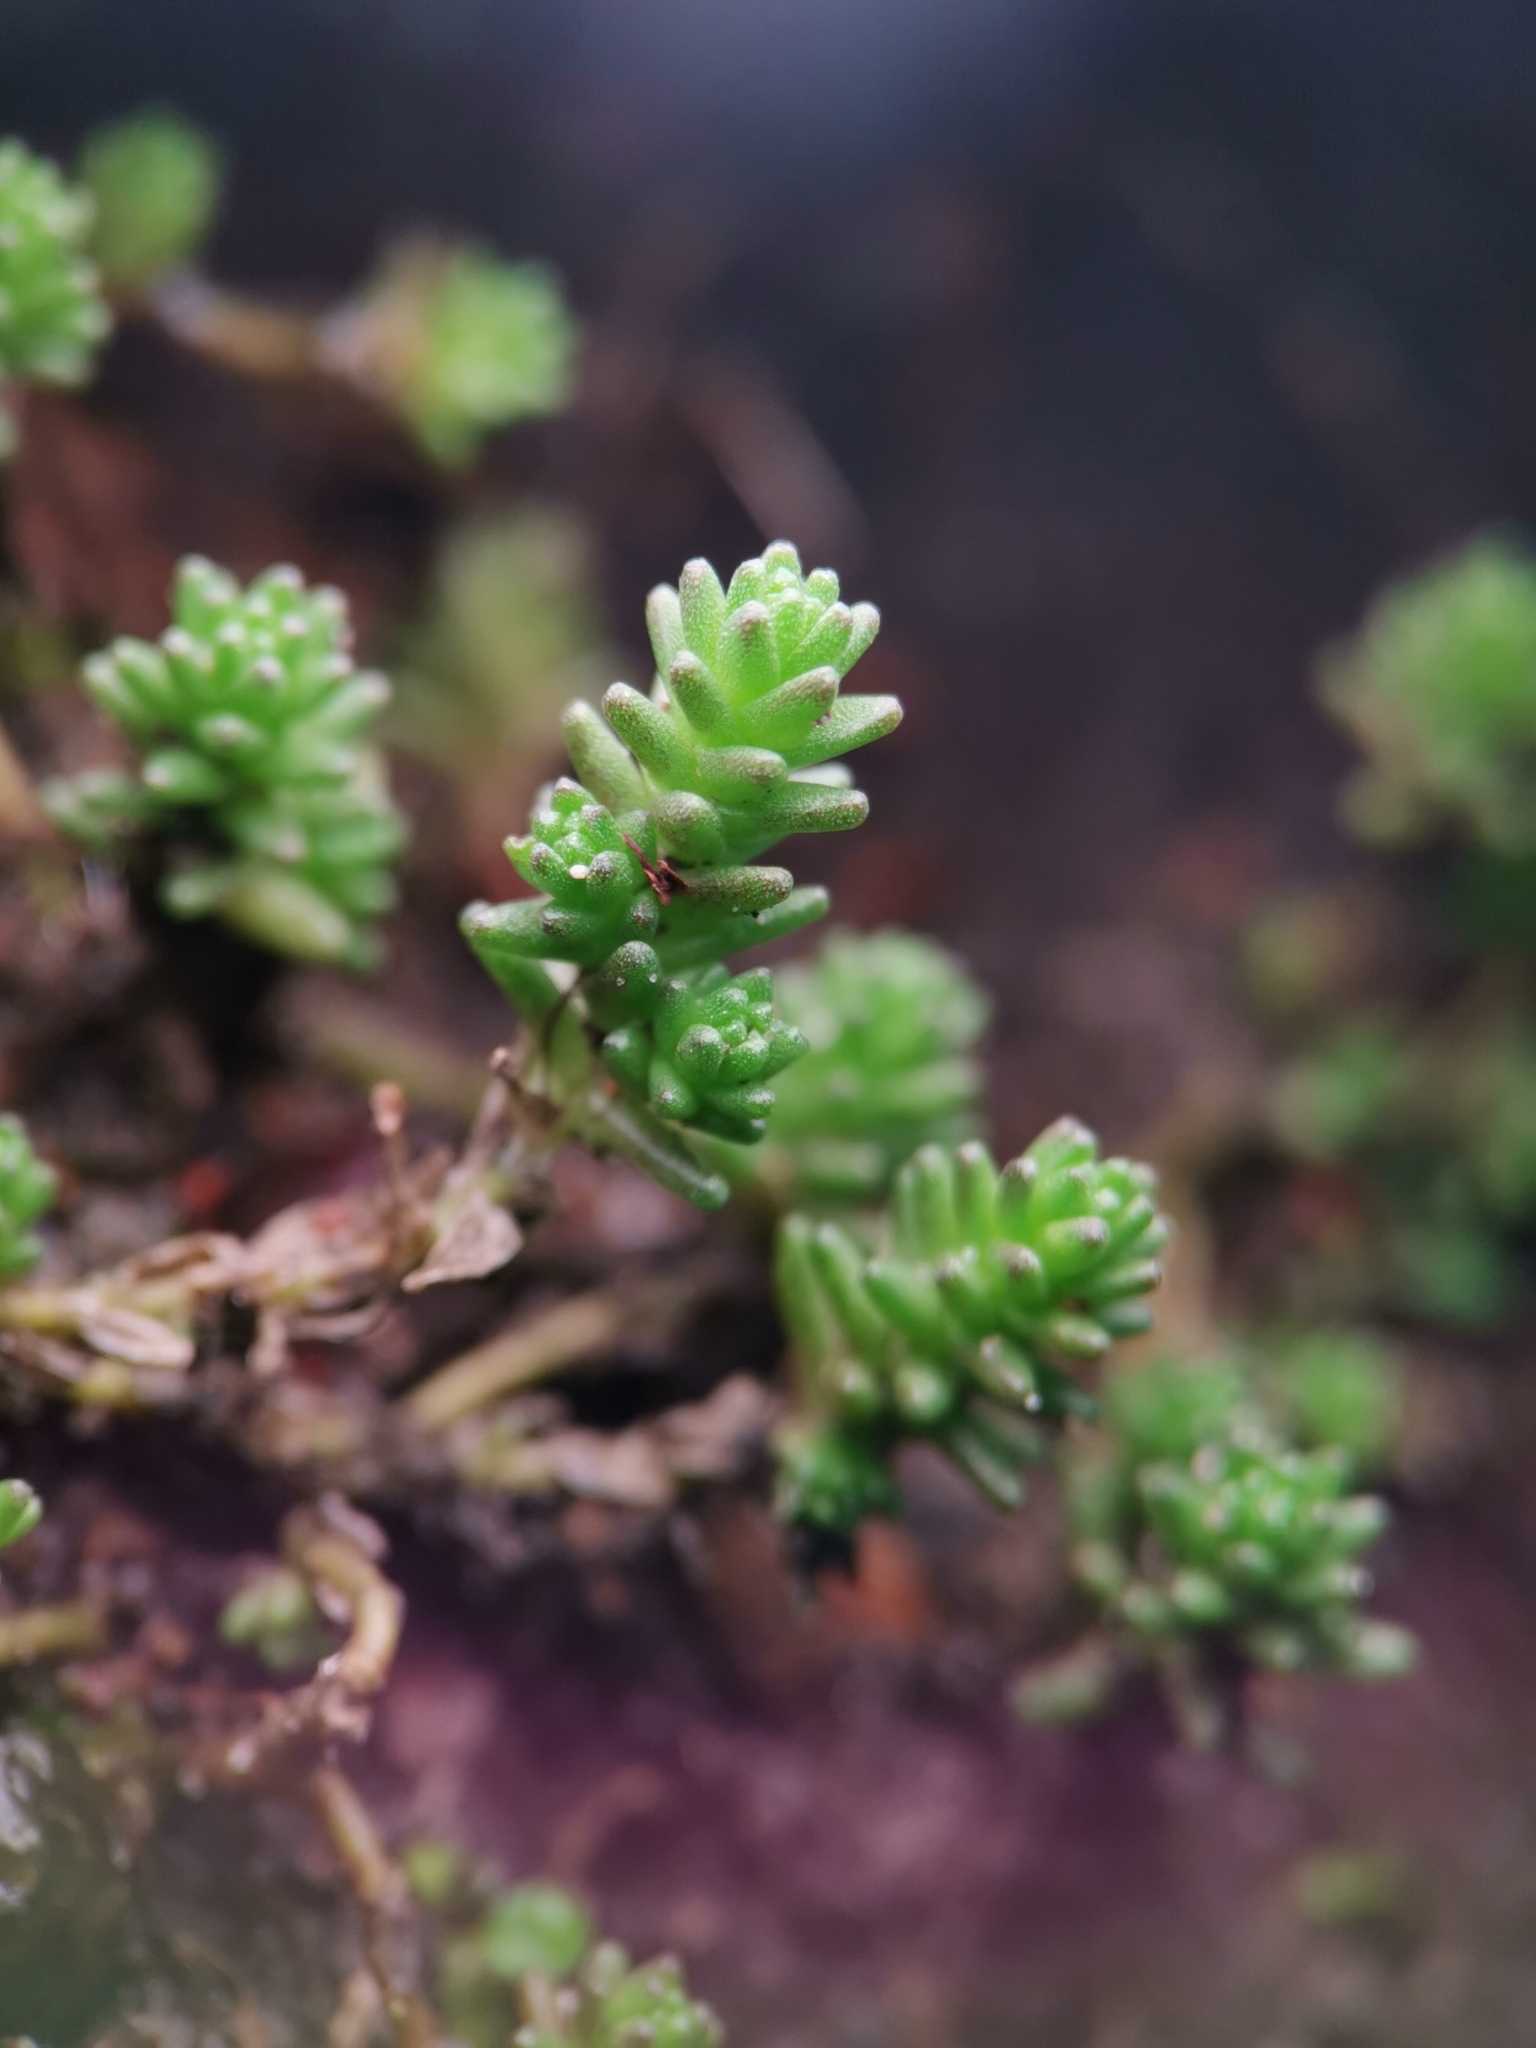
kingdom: Plantae
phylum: Tracheophyta
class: Magnoliopsida
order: Saxifragales
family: Crassulaceae
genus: Sedum
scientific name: Sedum sexangulare
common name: Tasteless stonecrop
